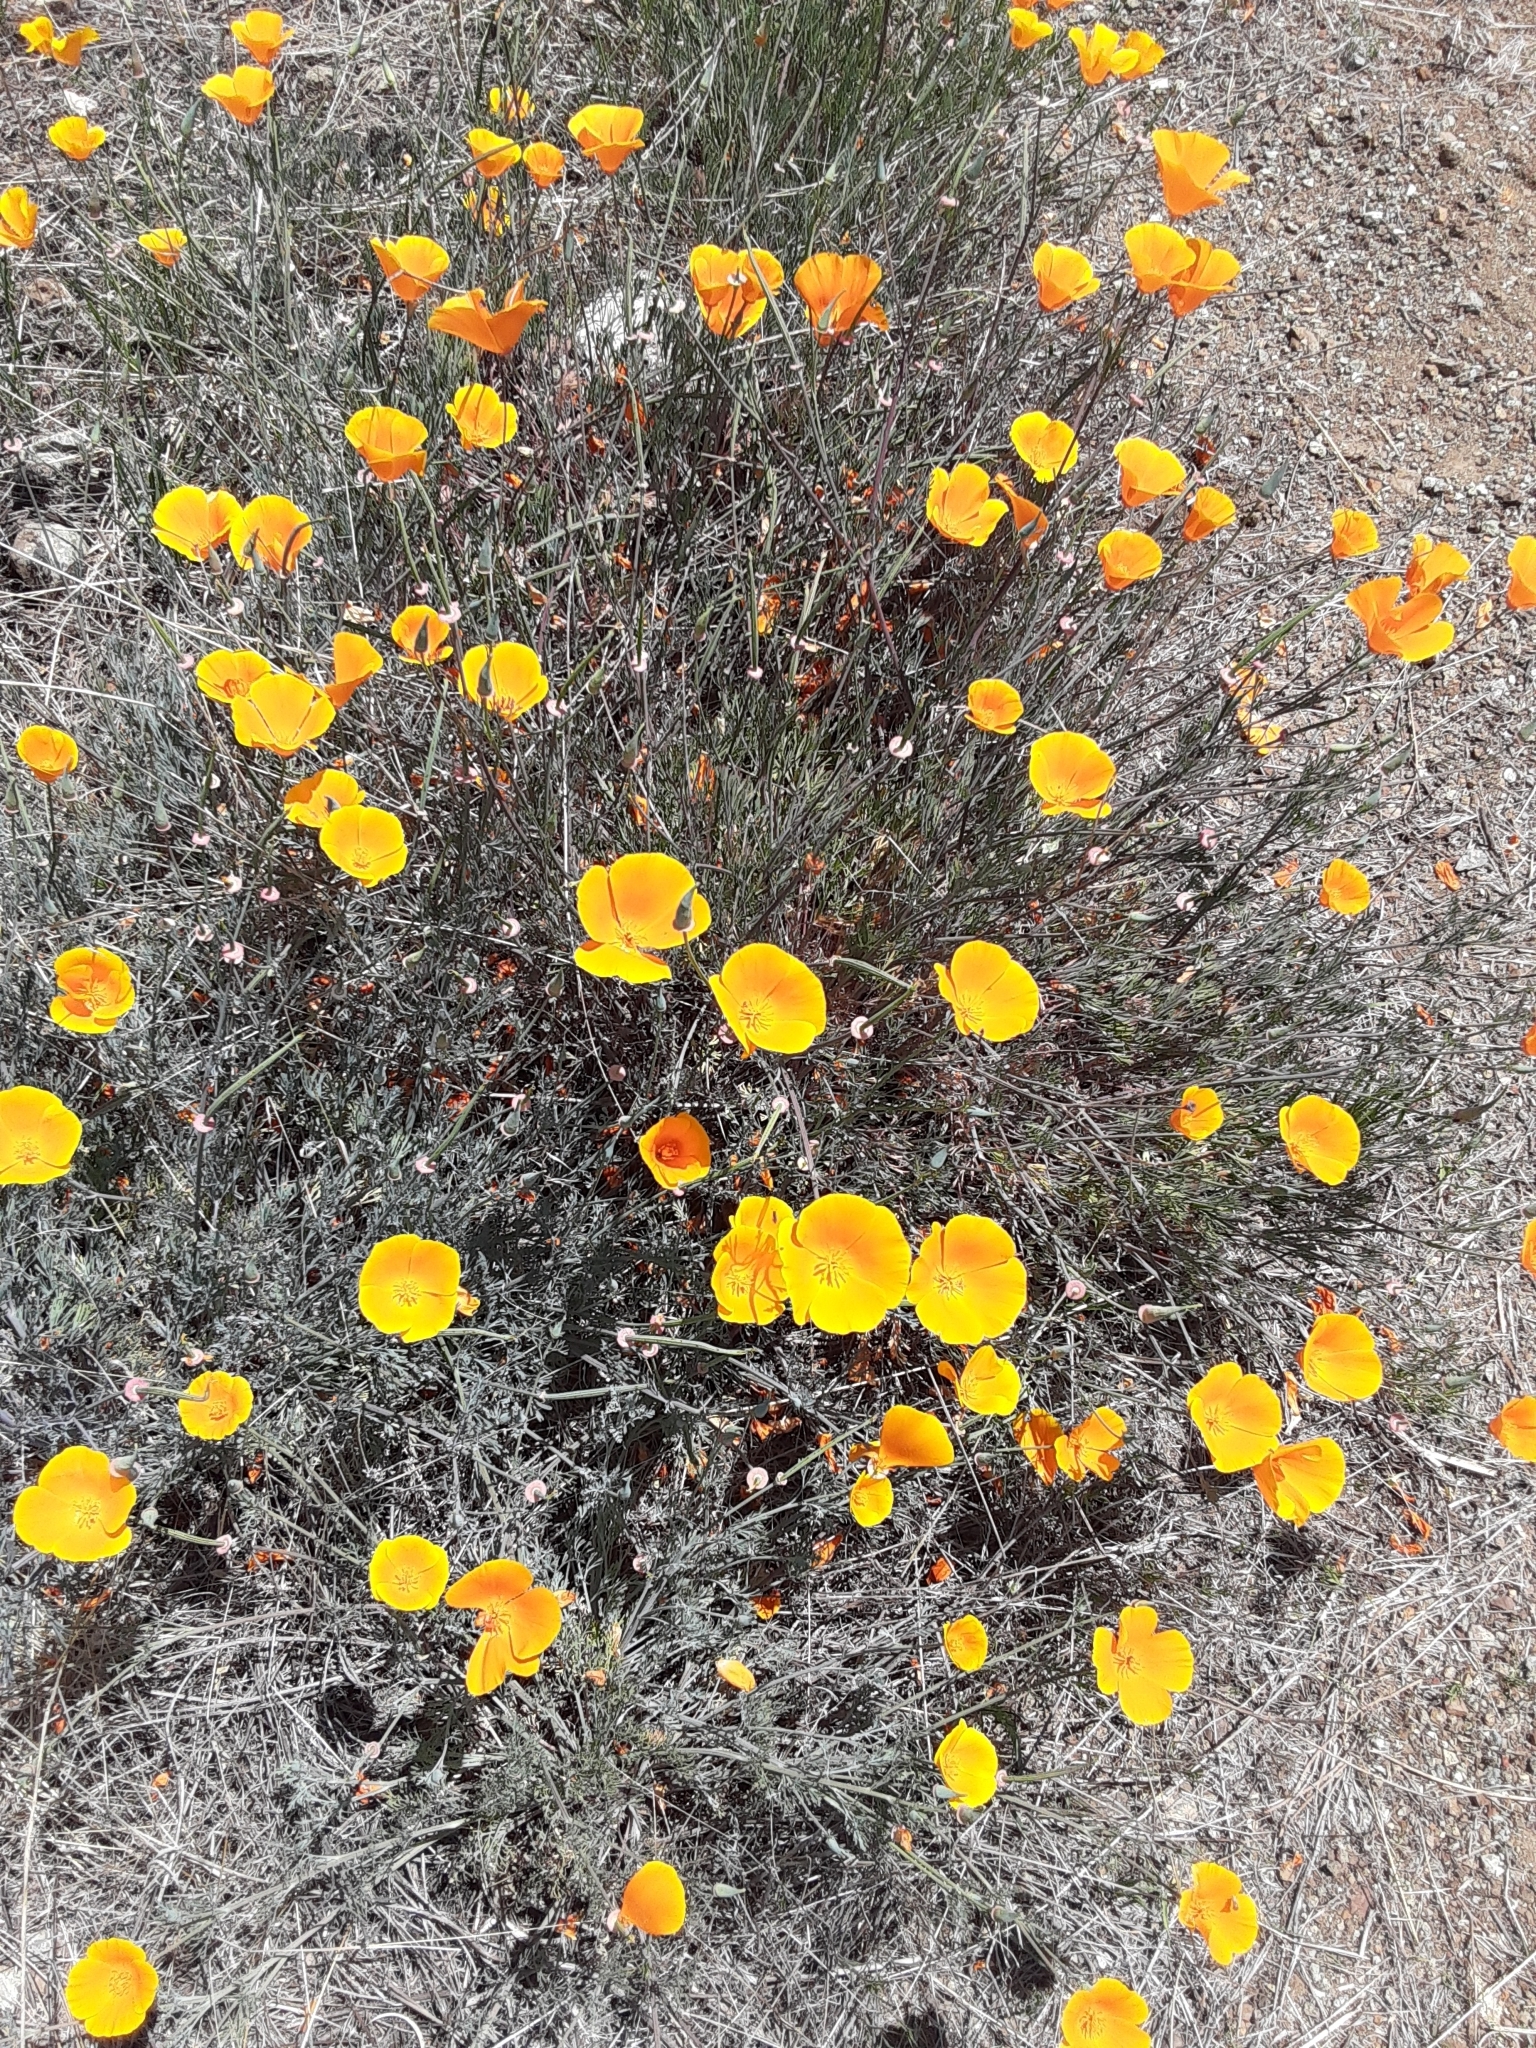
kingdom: Plantae
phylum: Tracheophyta
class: Magnoliopsida
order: Ranunculales
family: Papaveraceae
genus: Eschscholzia
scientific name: Eschscholzia californica
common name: California poppy
